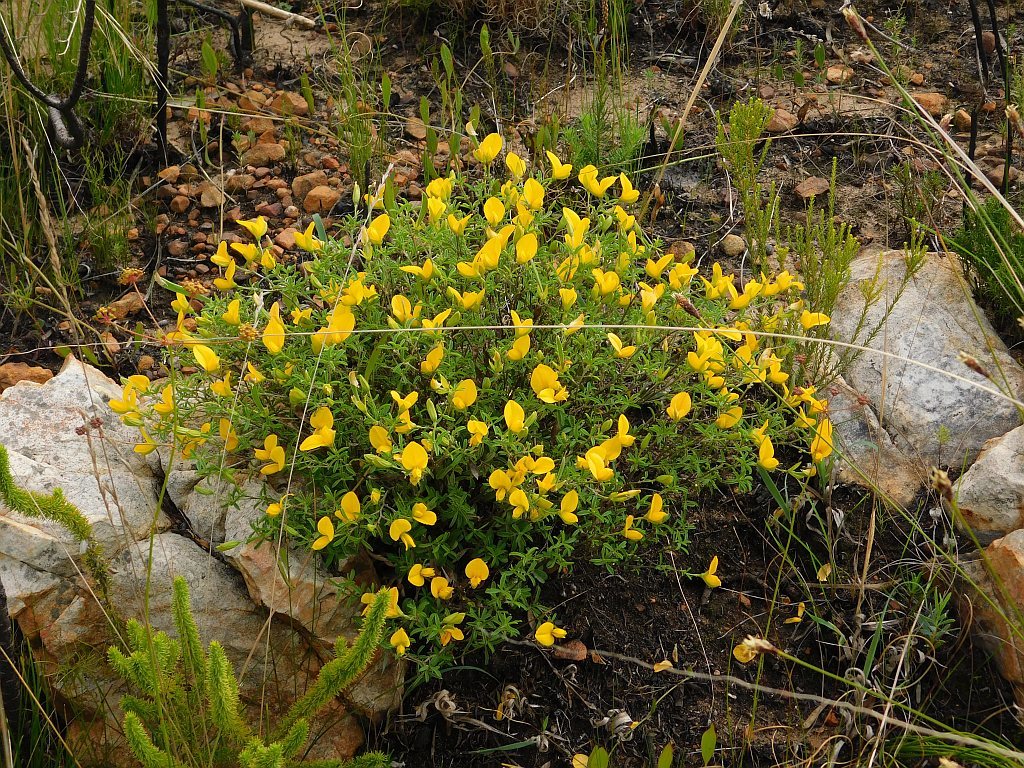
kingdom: Plantae
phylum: Tracheophyta
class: Magnoliopsida
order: Fabales
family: Fabaceae
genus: Argyrolobium
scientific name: Argyrolobium pachyphyllum
